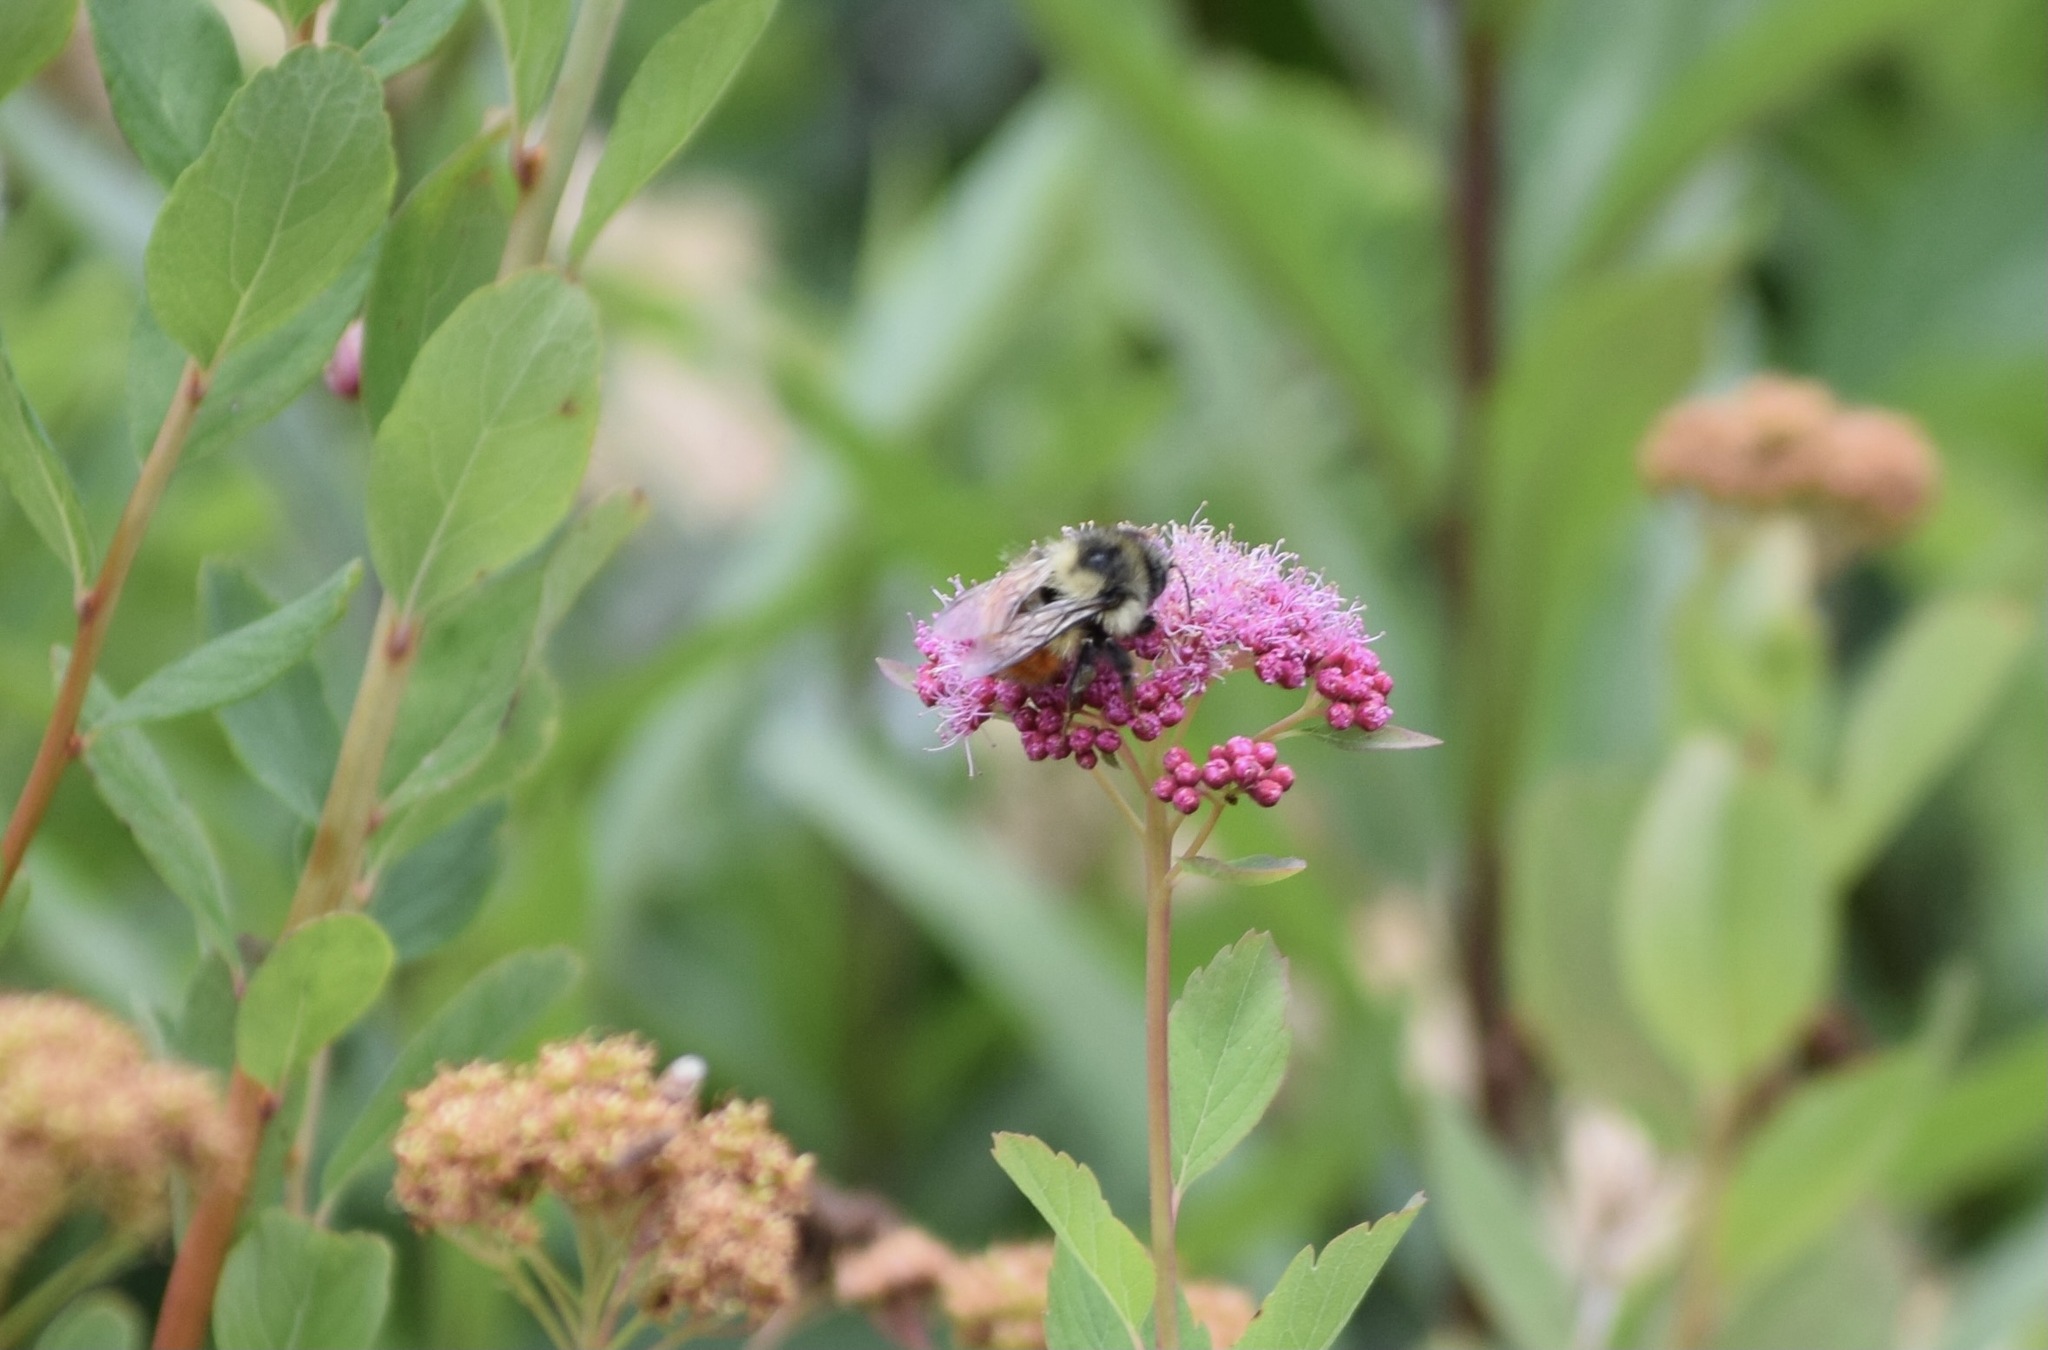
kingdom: Animalia
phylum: Arthropoda
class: Insecta
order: Hymenoptera
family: Apidae
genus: Bombus
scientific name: Bombus melanopygus
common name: Black tail bumble bee
